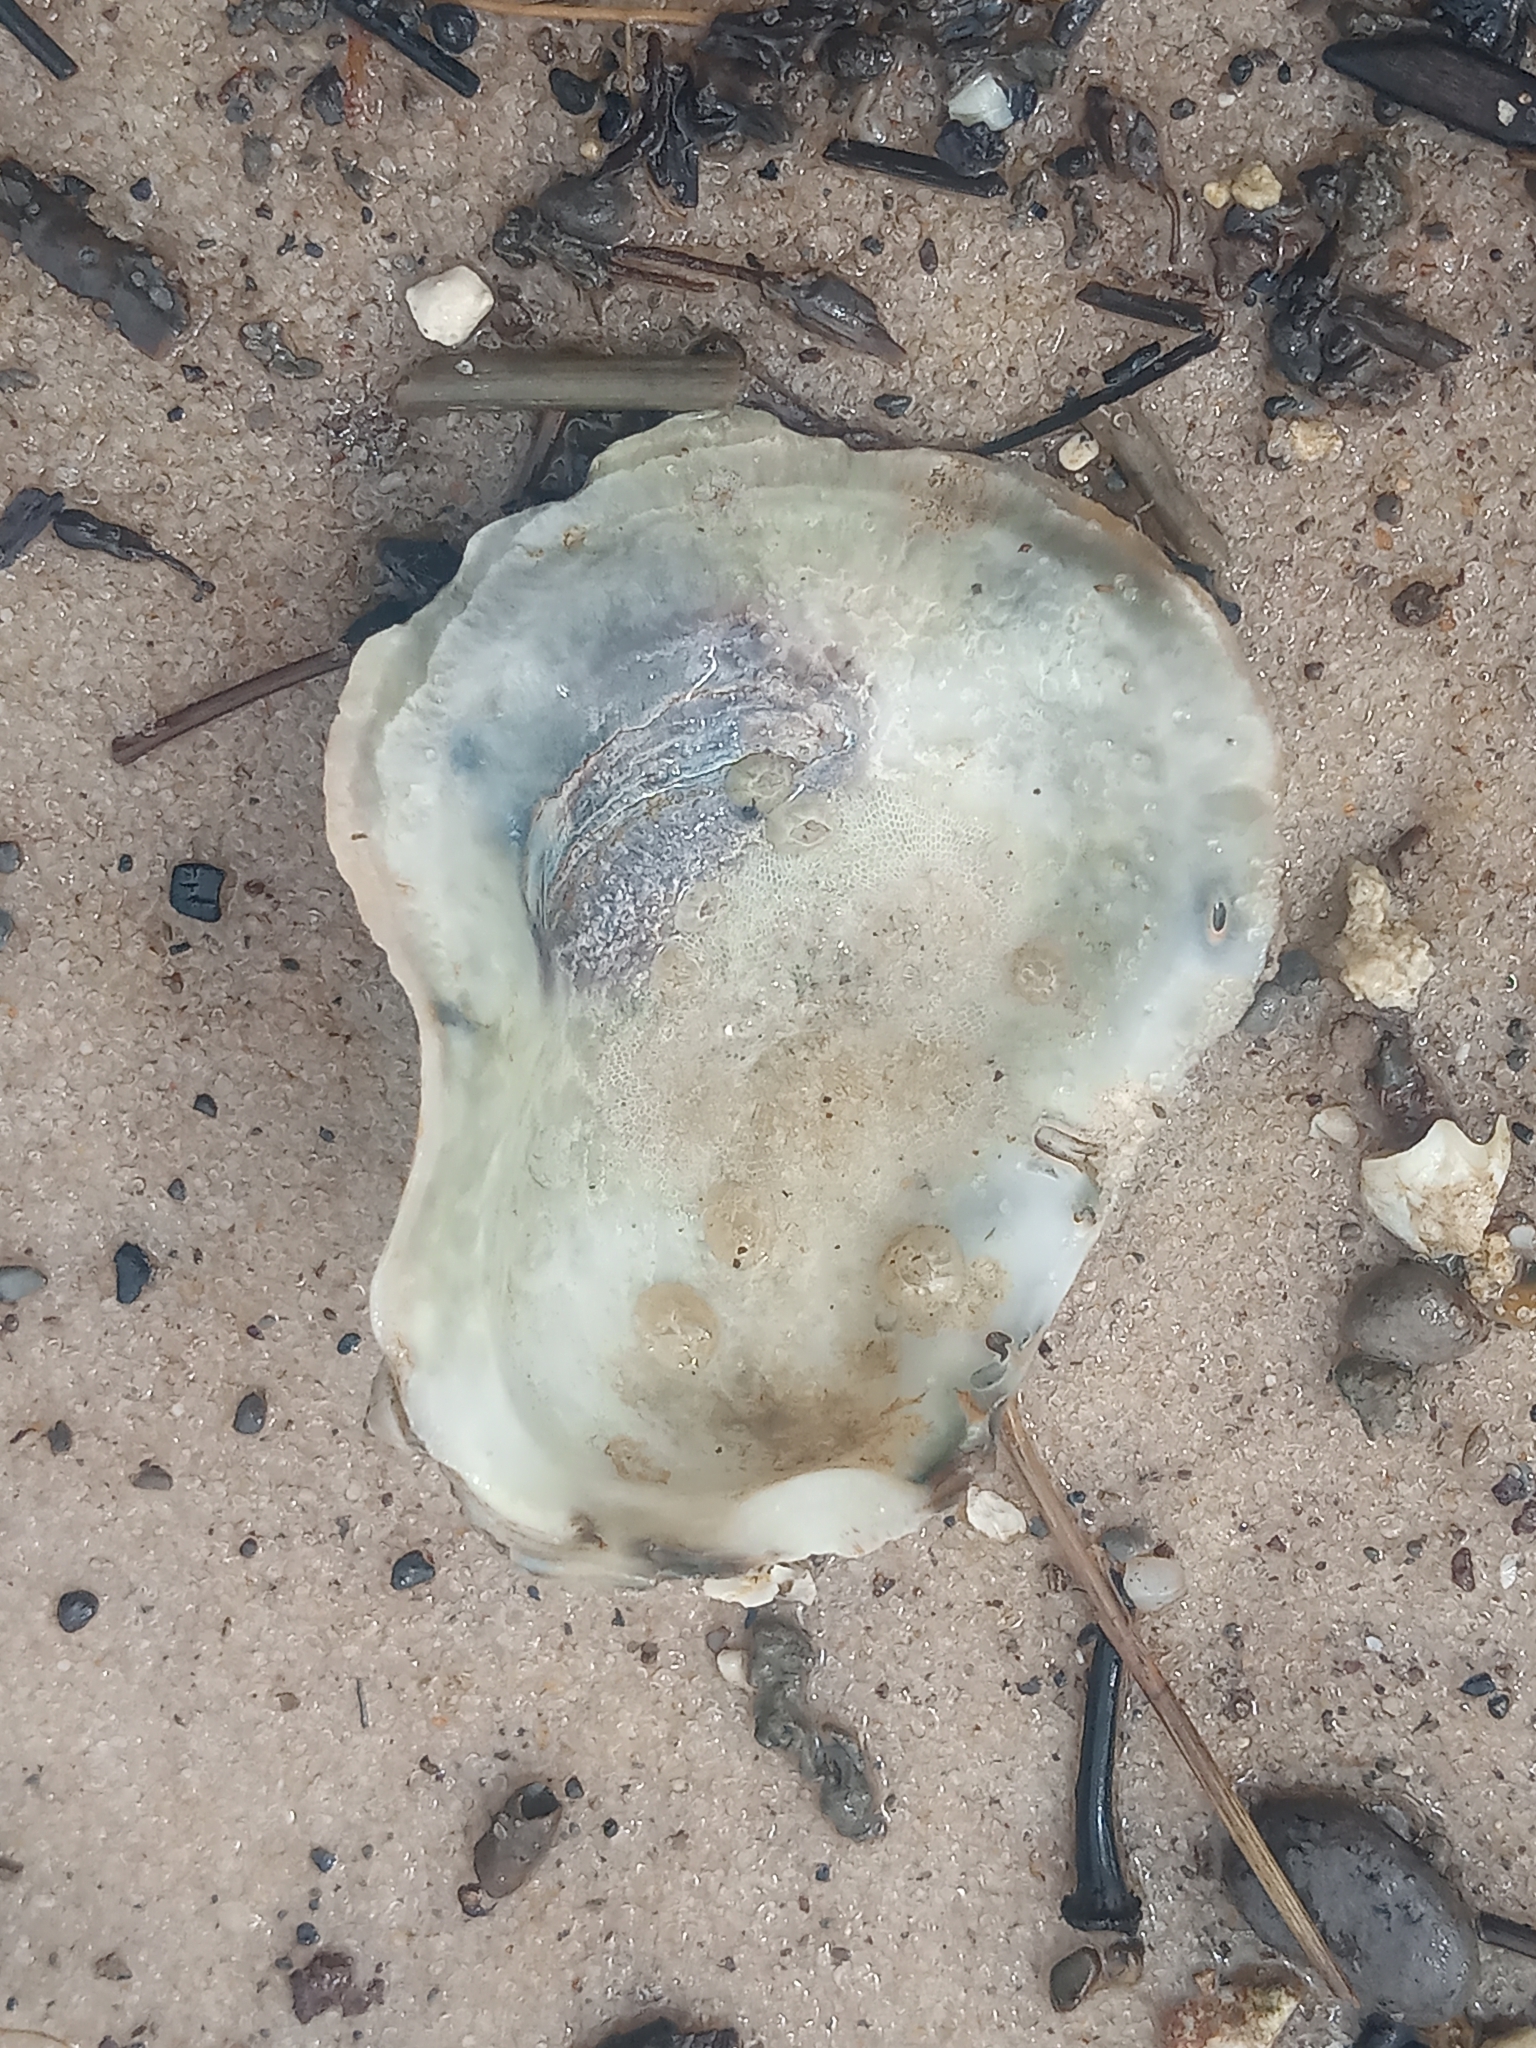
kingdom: Animalia
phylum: Mollusca
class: Bivalvia
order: Ostreida
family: Ostreidae
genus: Crassostrea
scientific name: Crassostrea virginica
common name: American oyster
